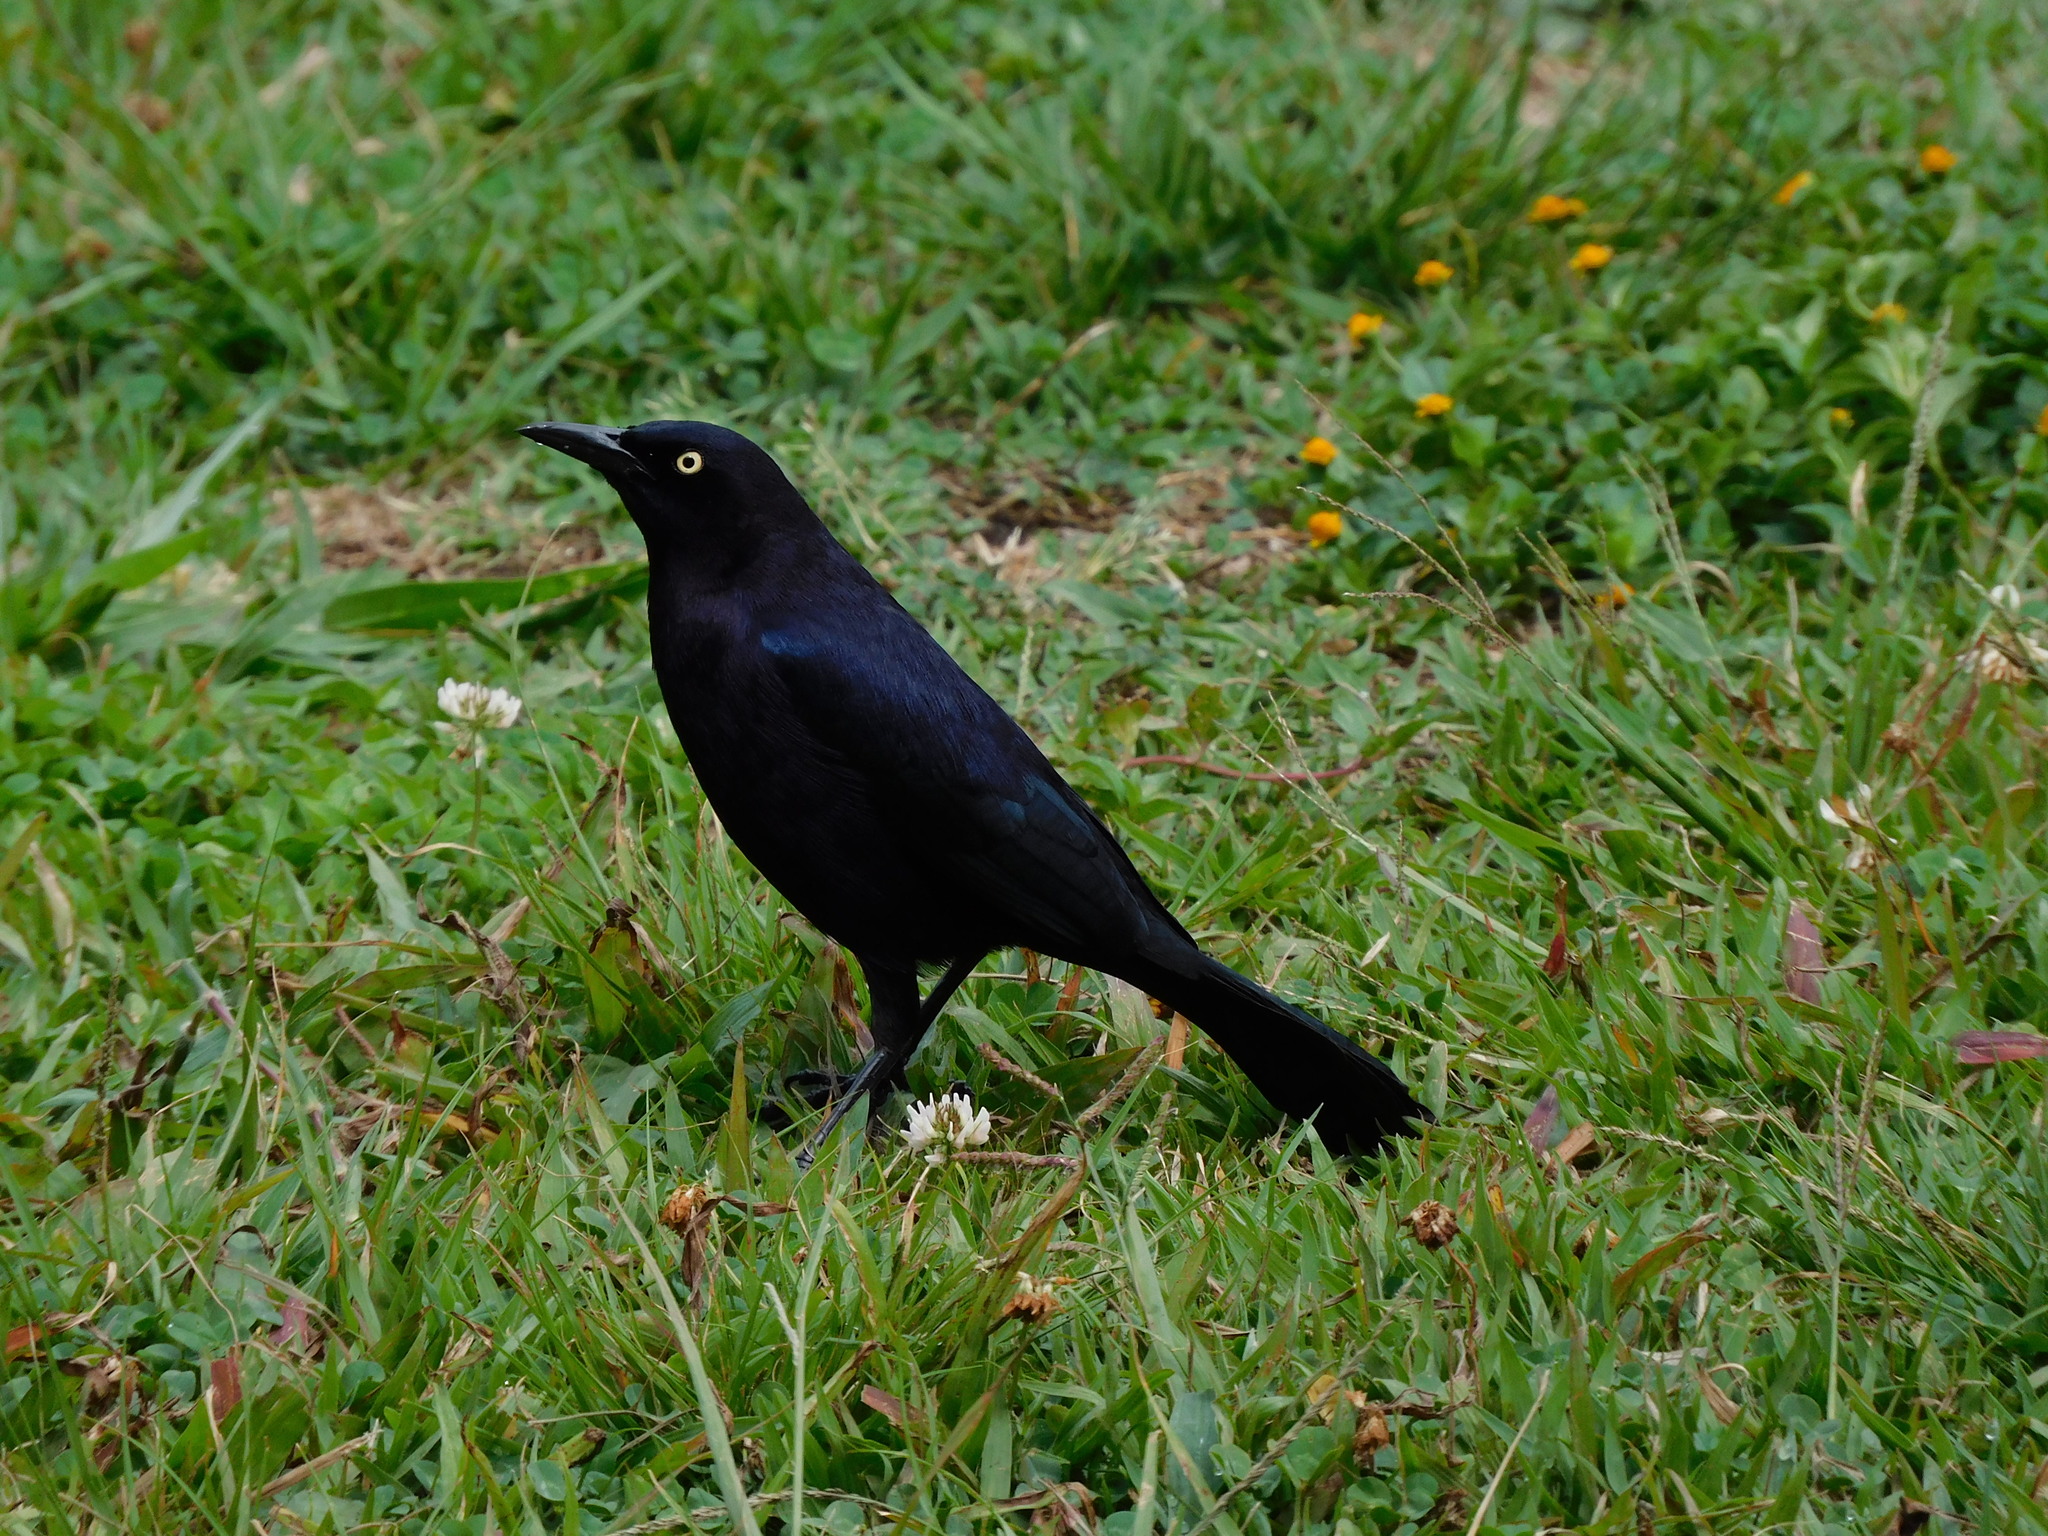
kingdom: Animalia
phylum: Chordata
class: Aves
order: Passeriformes
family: Icteridae
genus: Quiscalus
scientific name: Quiscalus lugubris
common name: Carib grackle
